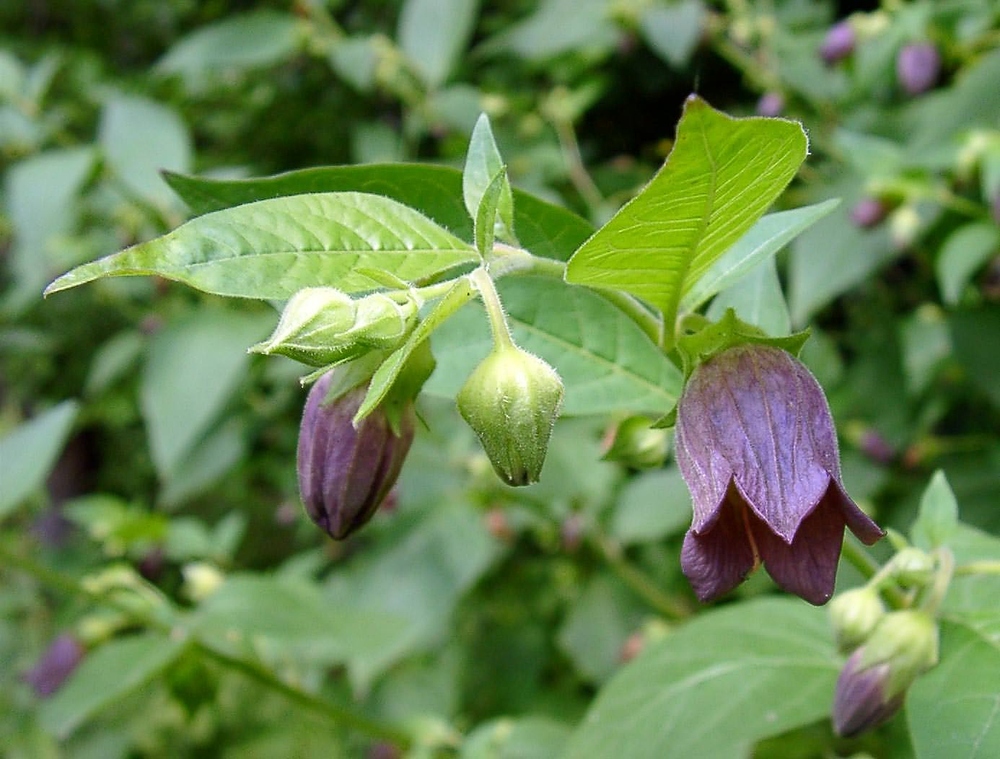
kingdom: Plantae
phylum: Tracheophyta
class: Magnoliopsida
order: Solanales
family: Solanaceae
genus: Atropa
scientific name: Atropa belladonna
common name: Deadly nightshade
